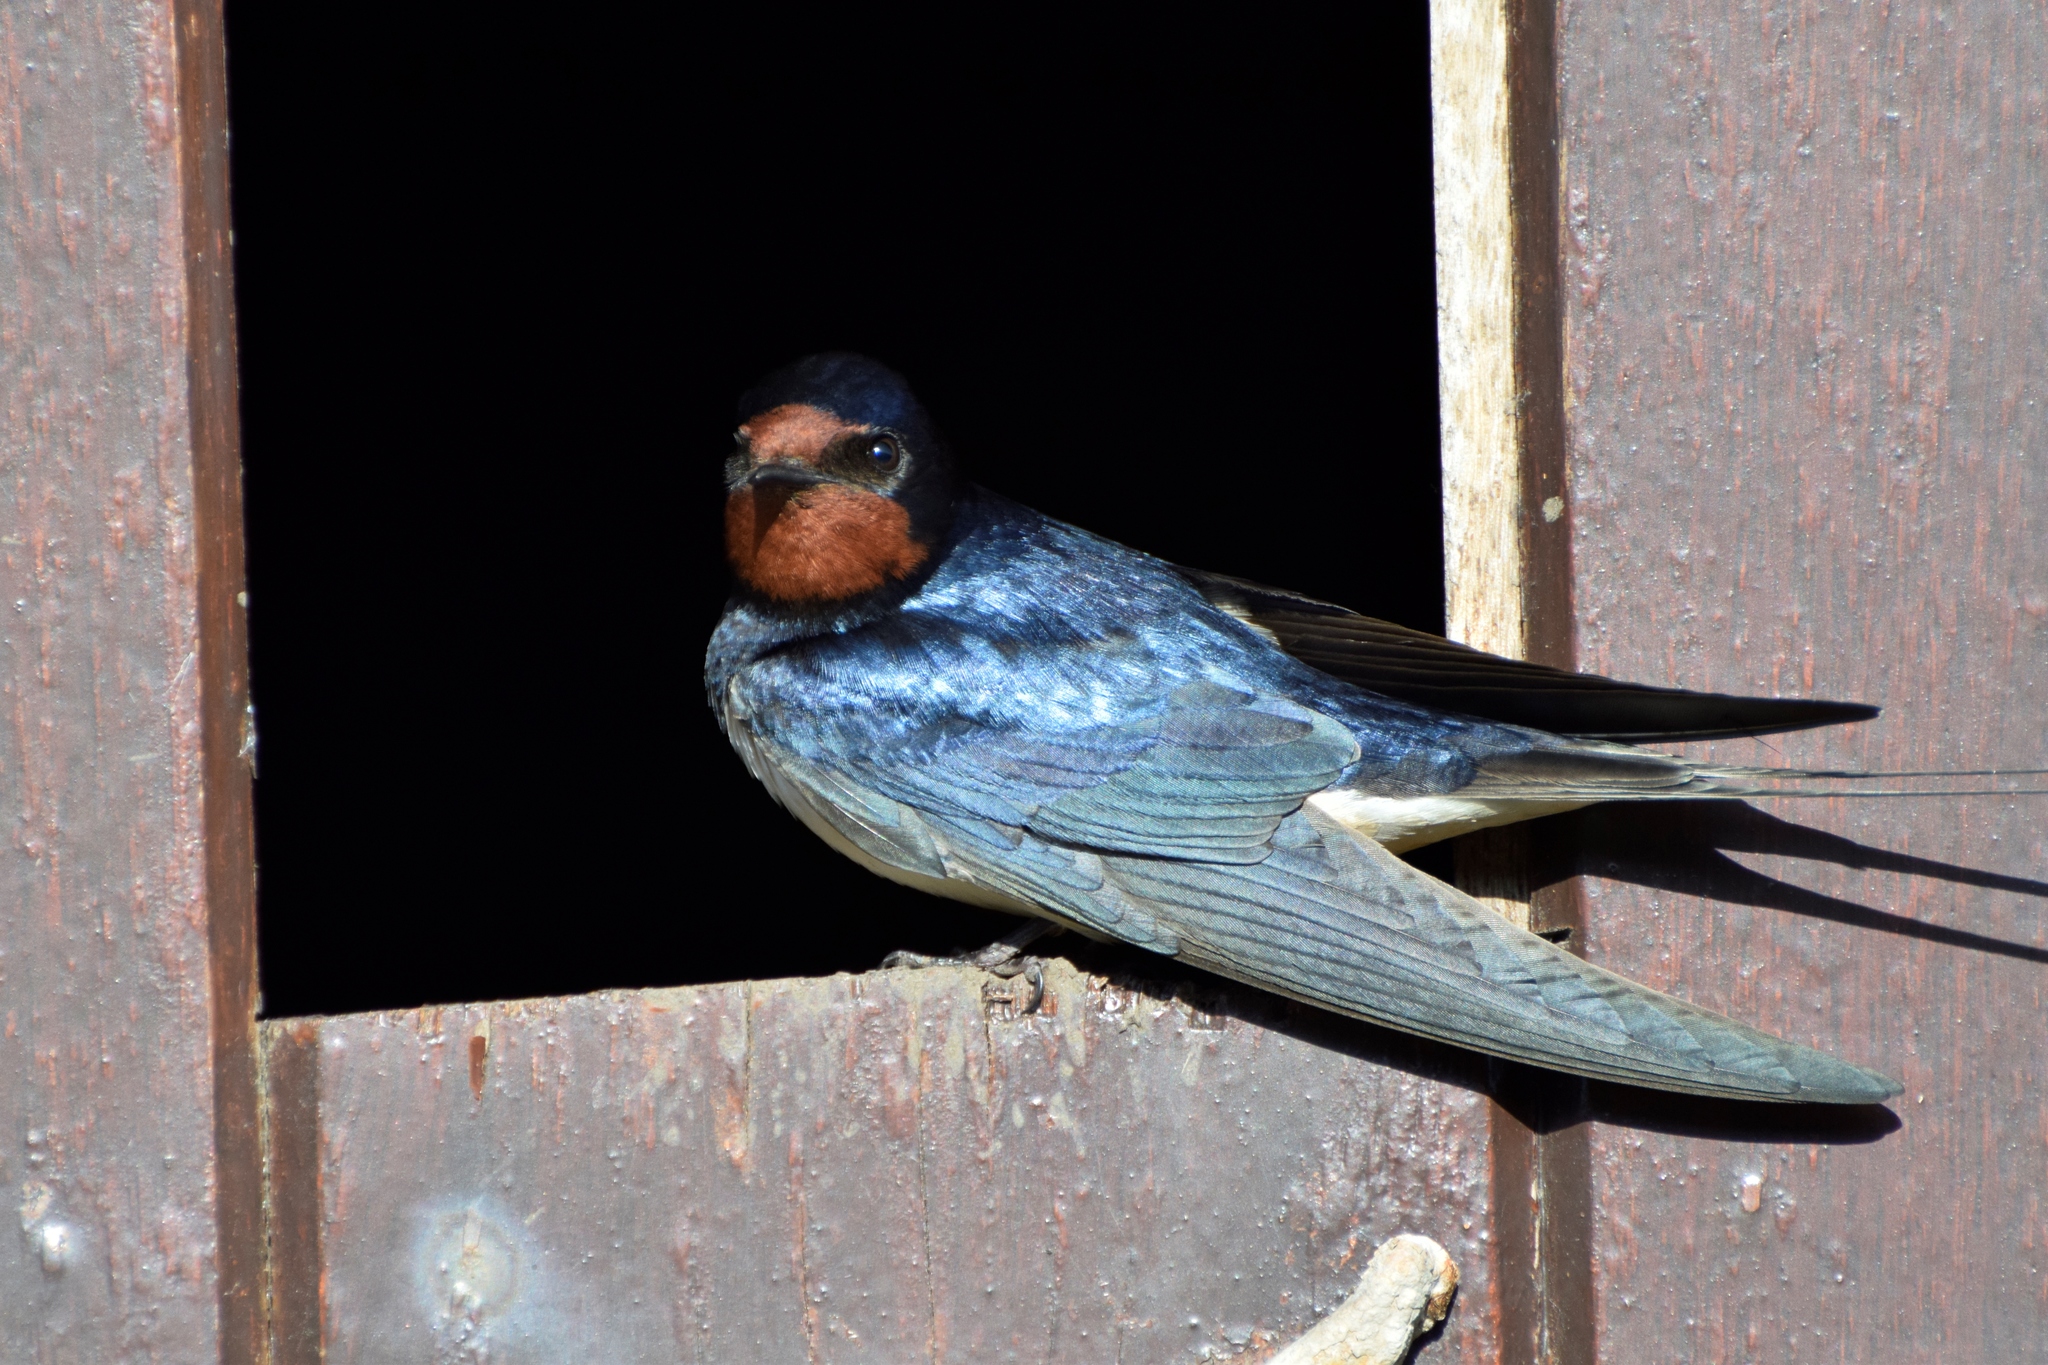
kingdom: Animalia
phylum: Chordata
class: Aves
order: Passeriformes
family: Hirundinidae
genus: Hirundo
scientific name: Hirundo rustica
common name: Barn swallow
